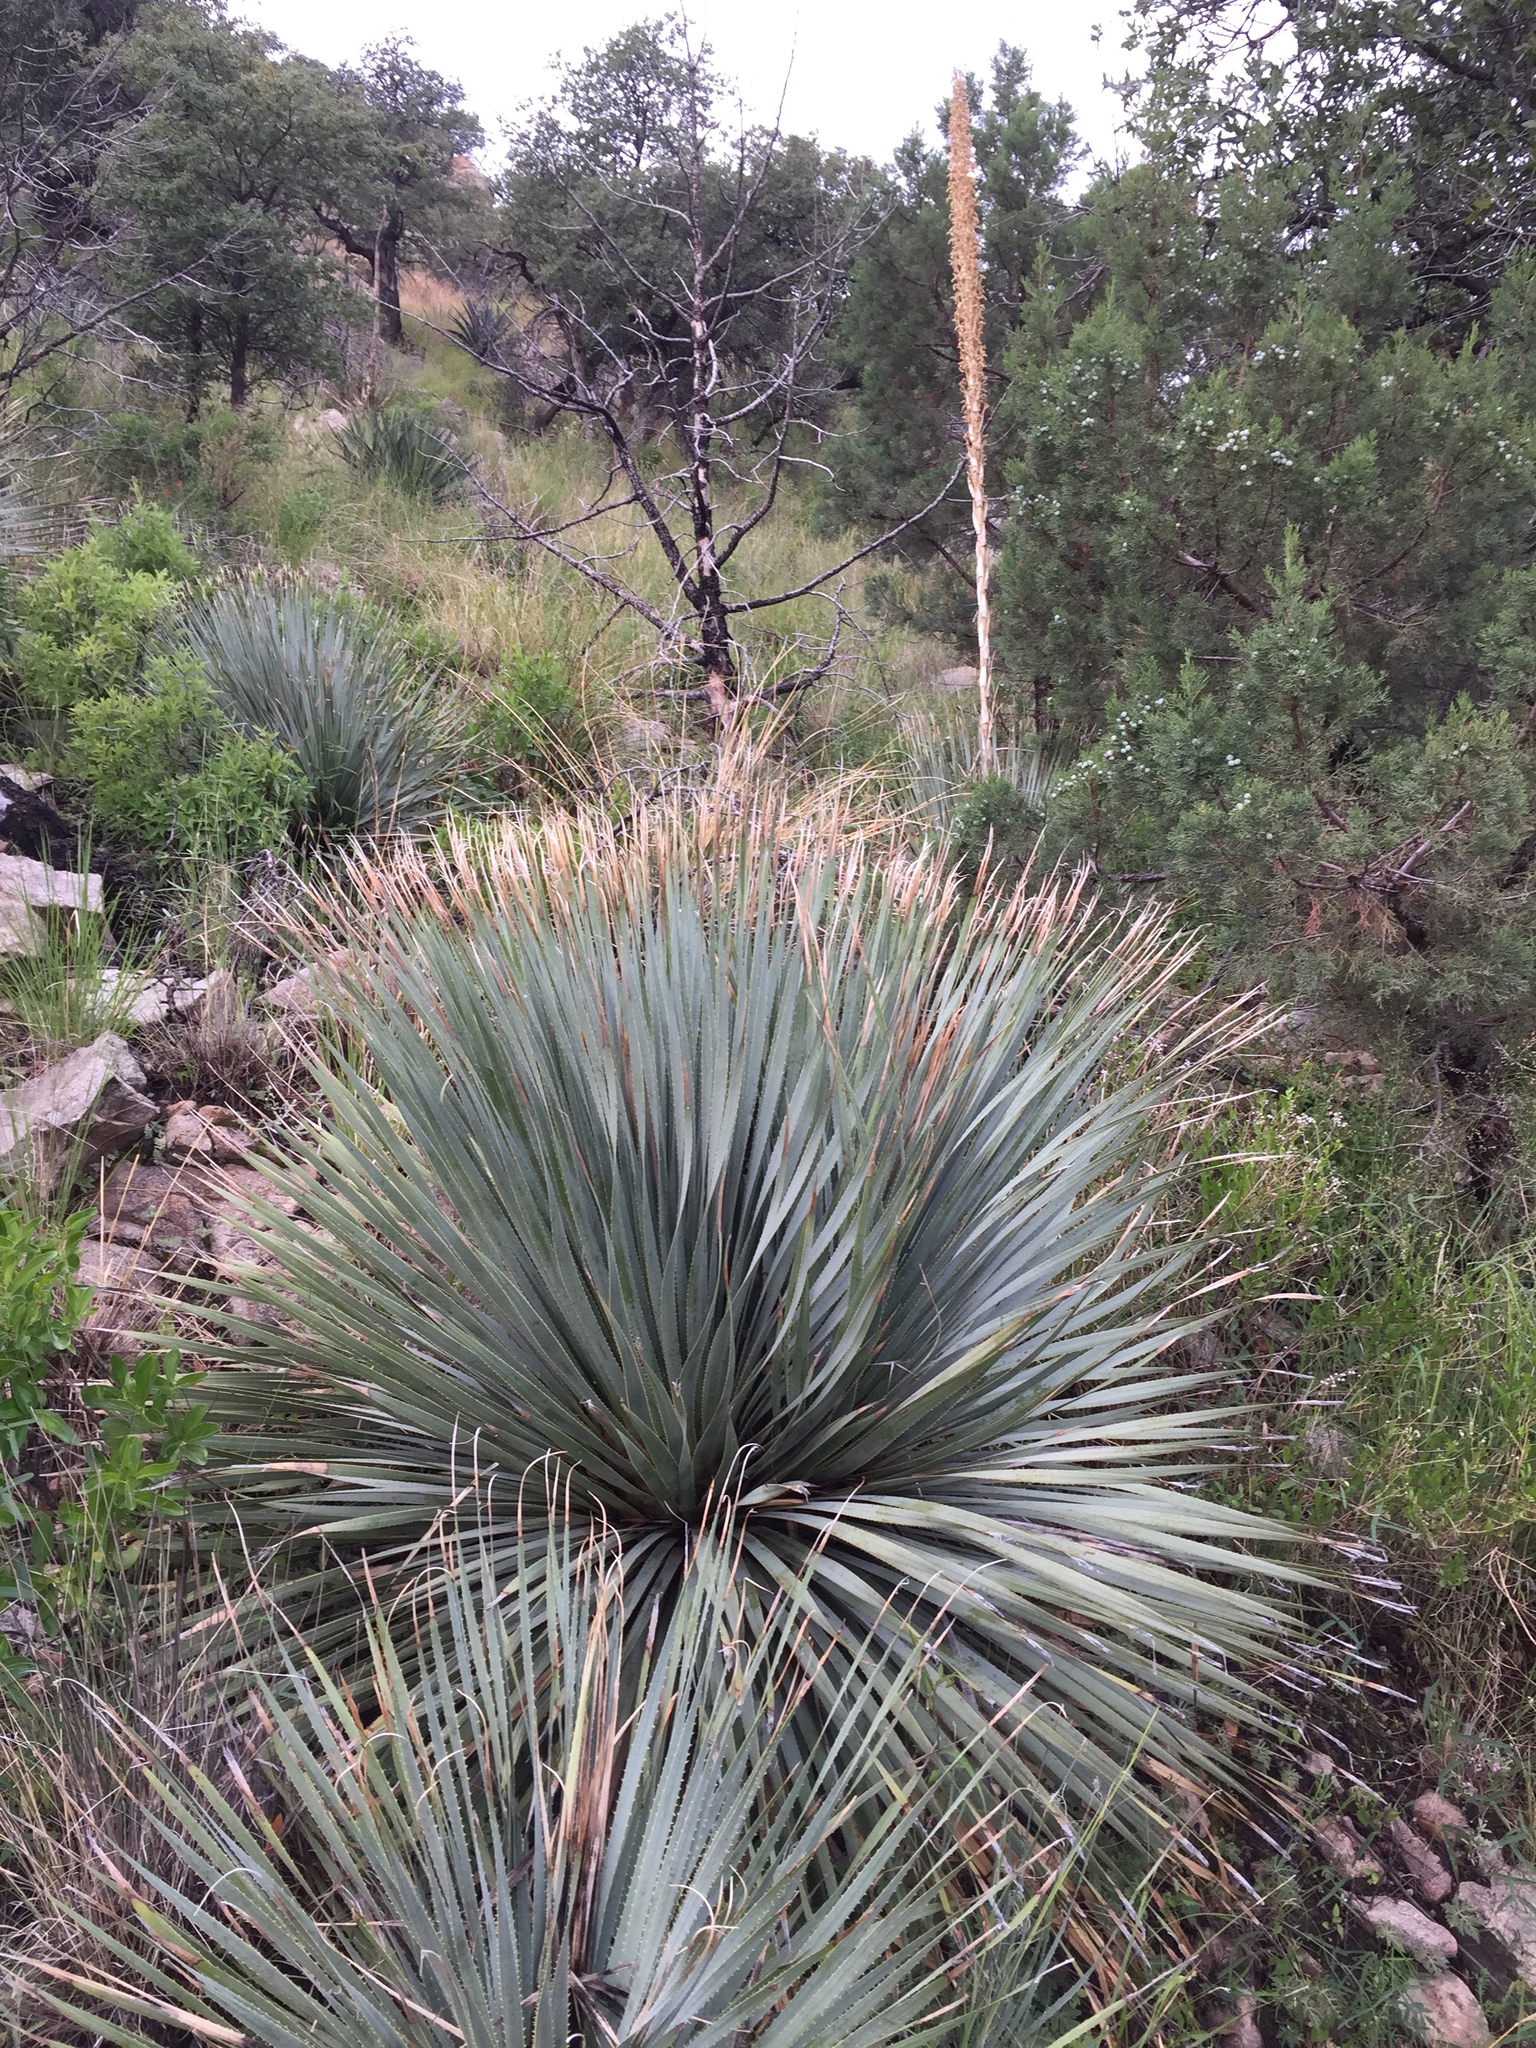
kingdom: Plantae
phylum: Tracheophyta
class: Liliopsida
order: Asparagales
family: Asparagaceae
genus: Dasylirion
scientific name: Dasylirion wheeleri
